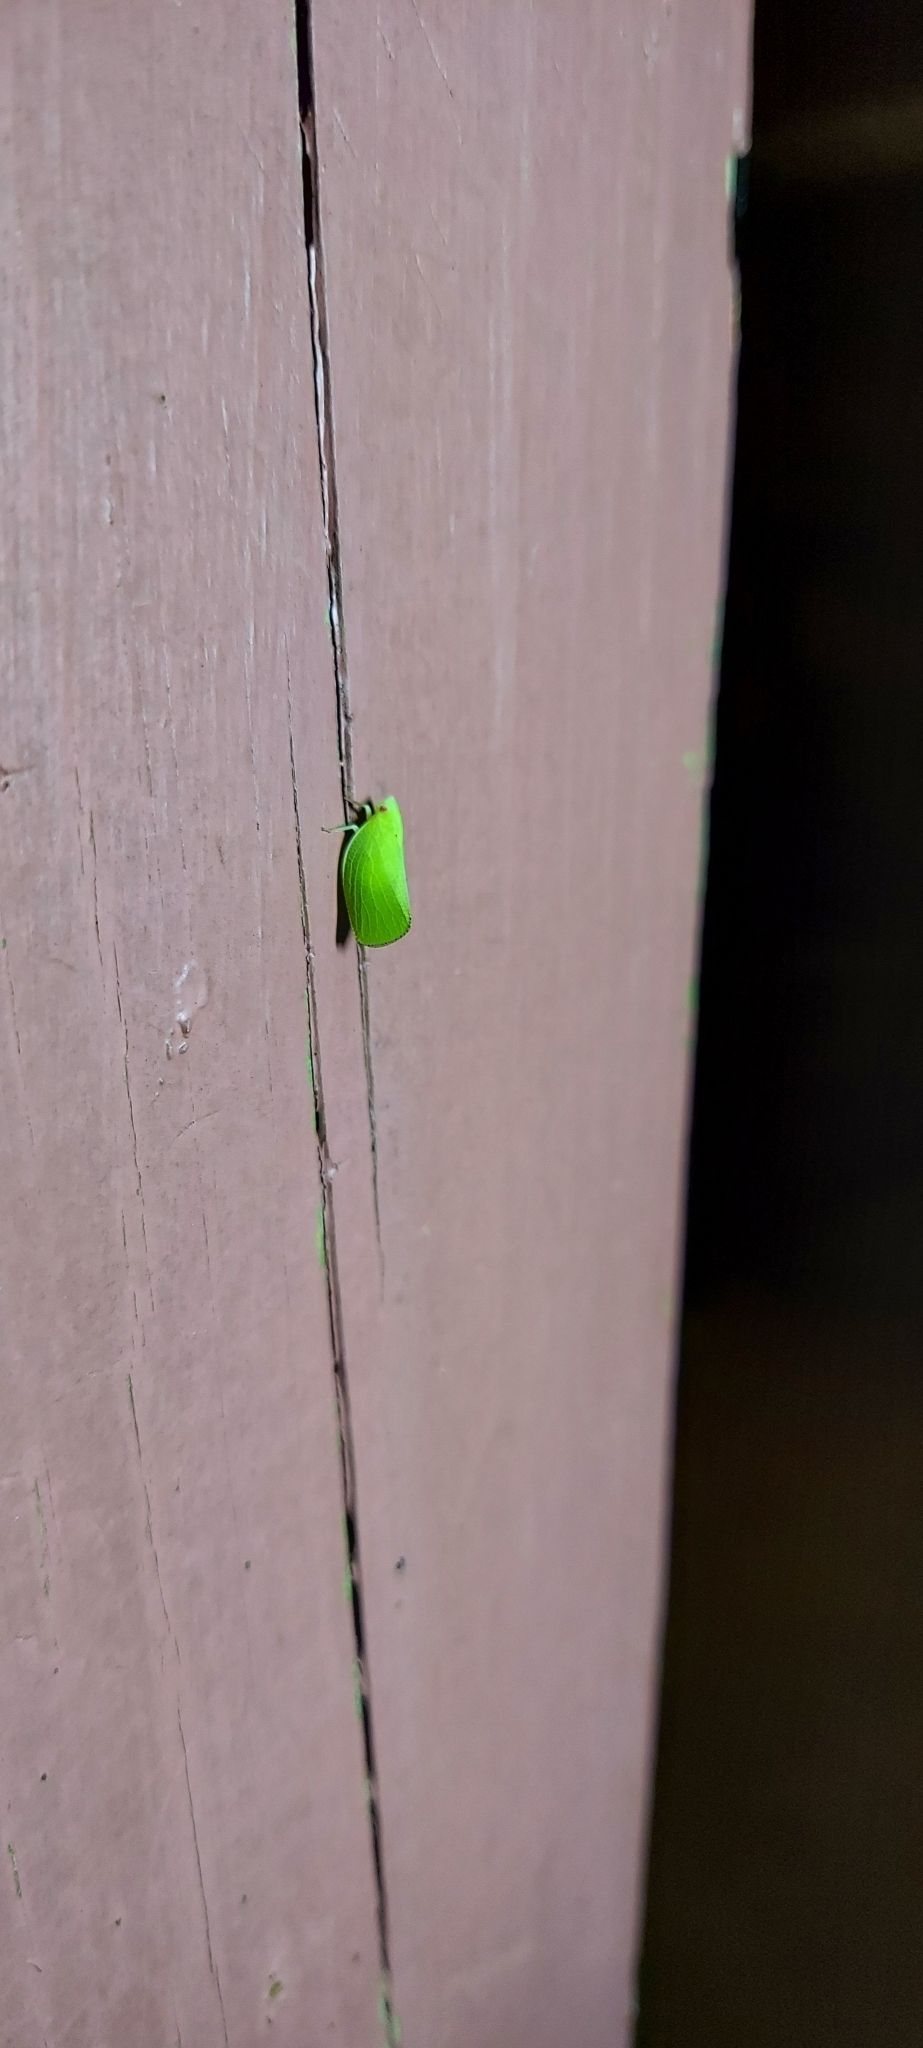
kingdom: Animalia
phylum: Arthropoda
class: Insecta
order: Hemiptera
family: Acanaloniidae
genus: Acanalonia
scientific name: Acanalonia conica
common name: Green cone-headed planthopper
